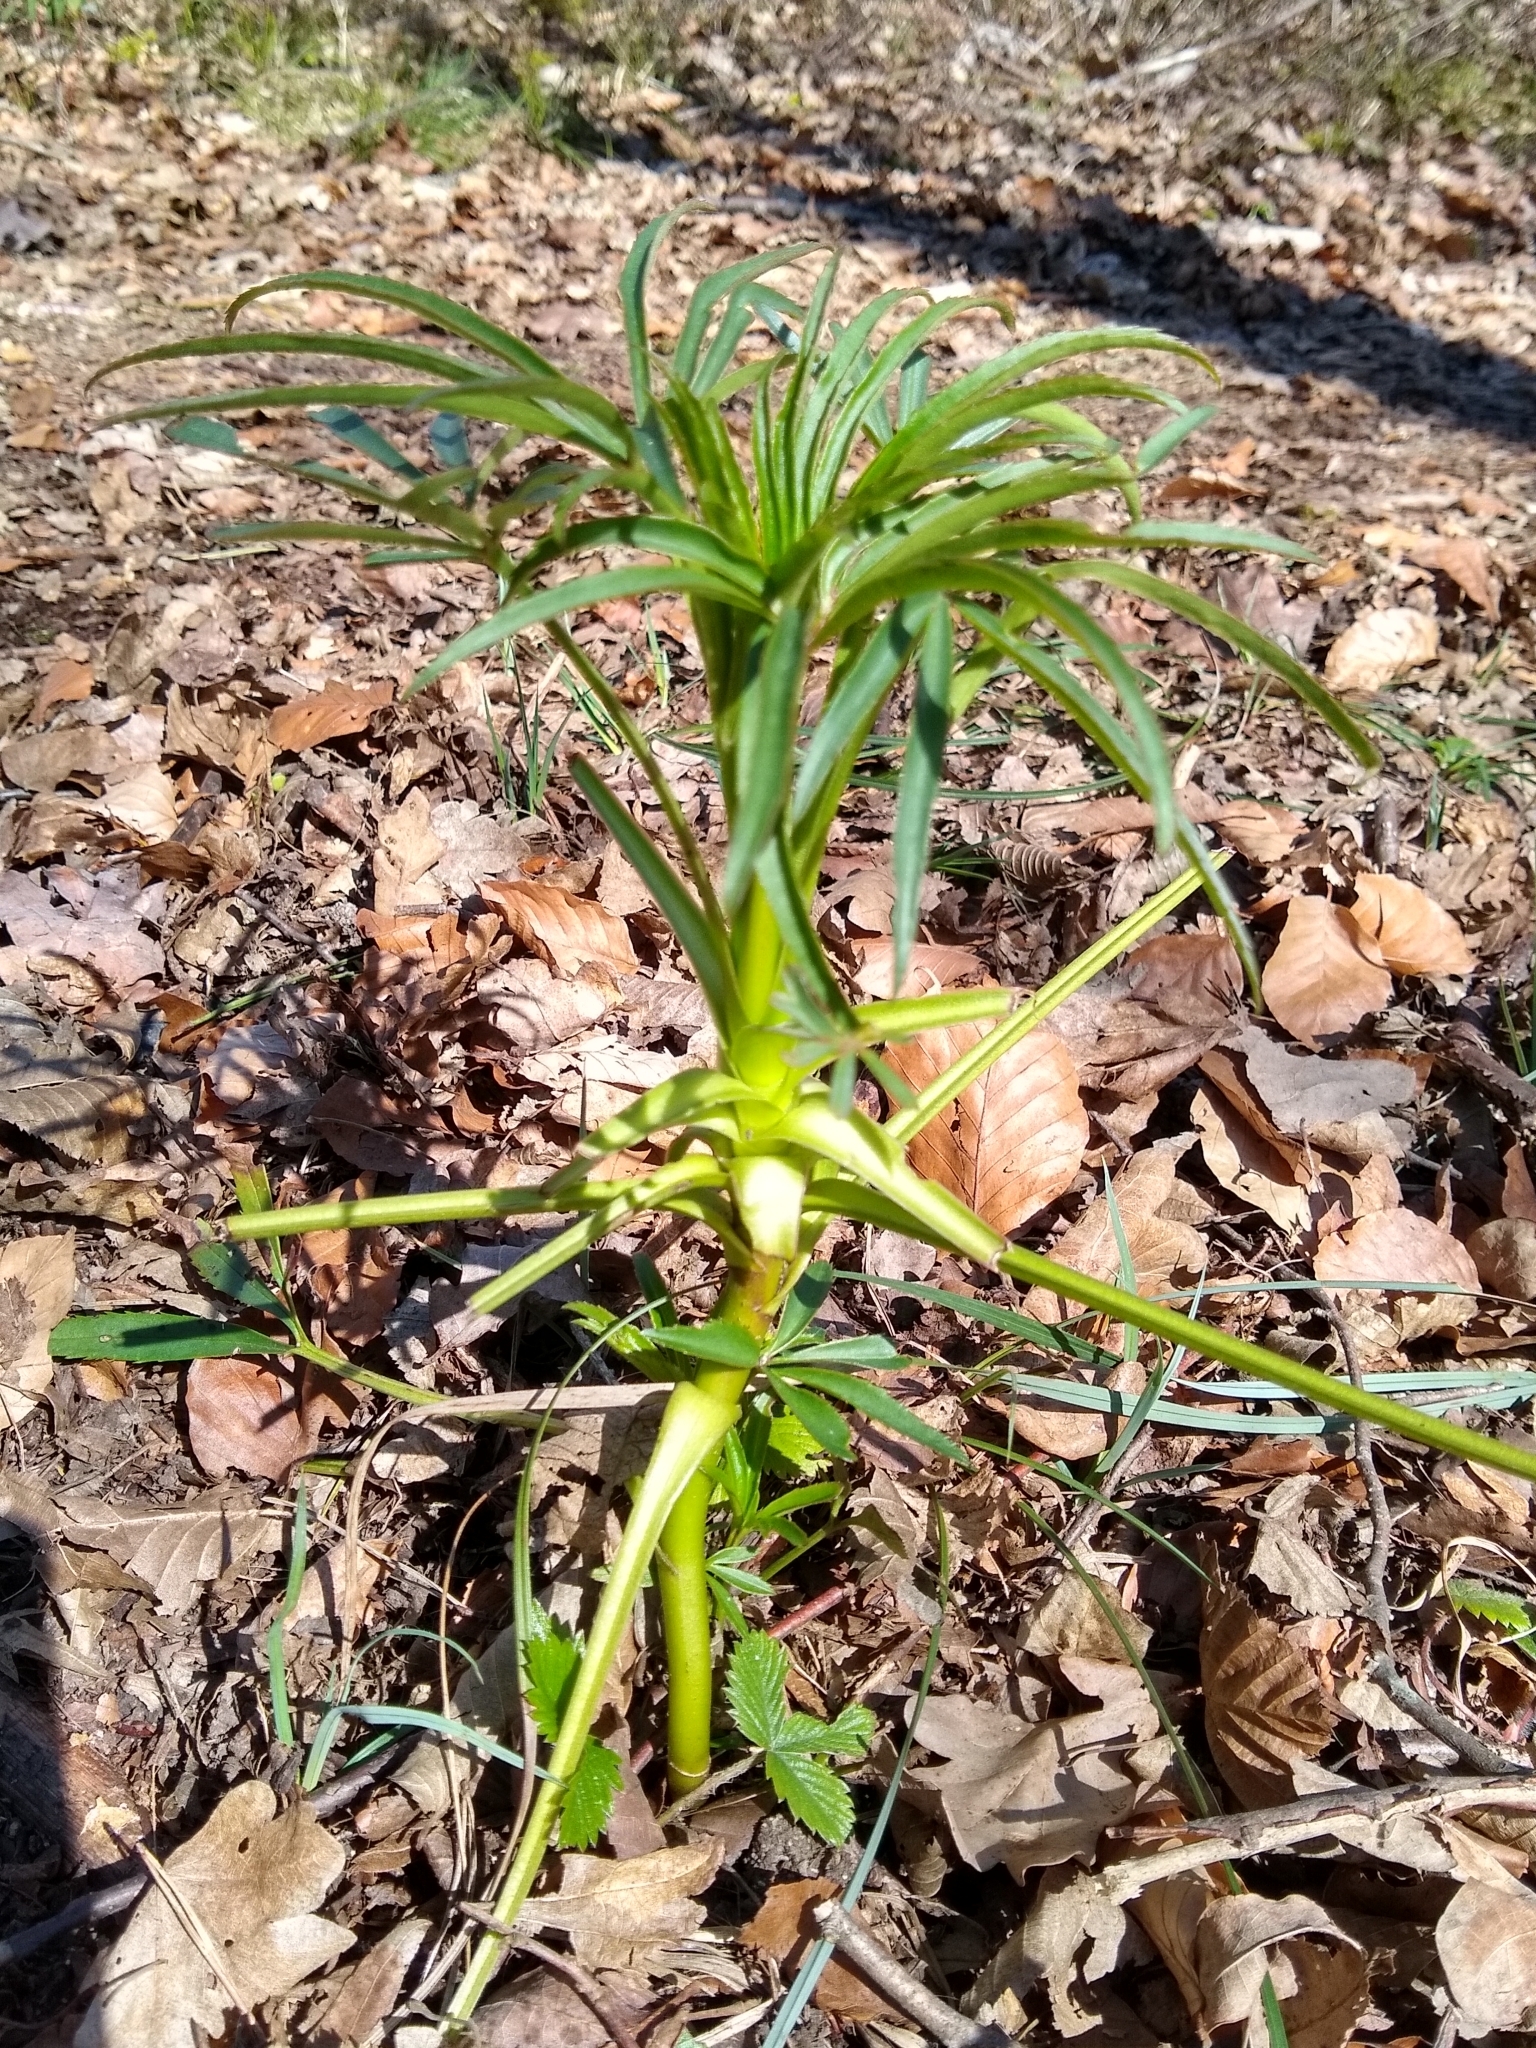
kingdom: Plantae
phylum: Tracheophyta
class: Magnoliopsida
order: Ranunculales
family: Ranunculaceae
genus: Helleborus
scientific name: Helleborus foetidus
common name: Stinking hellebore
